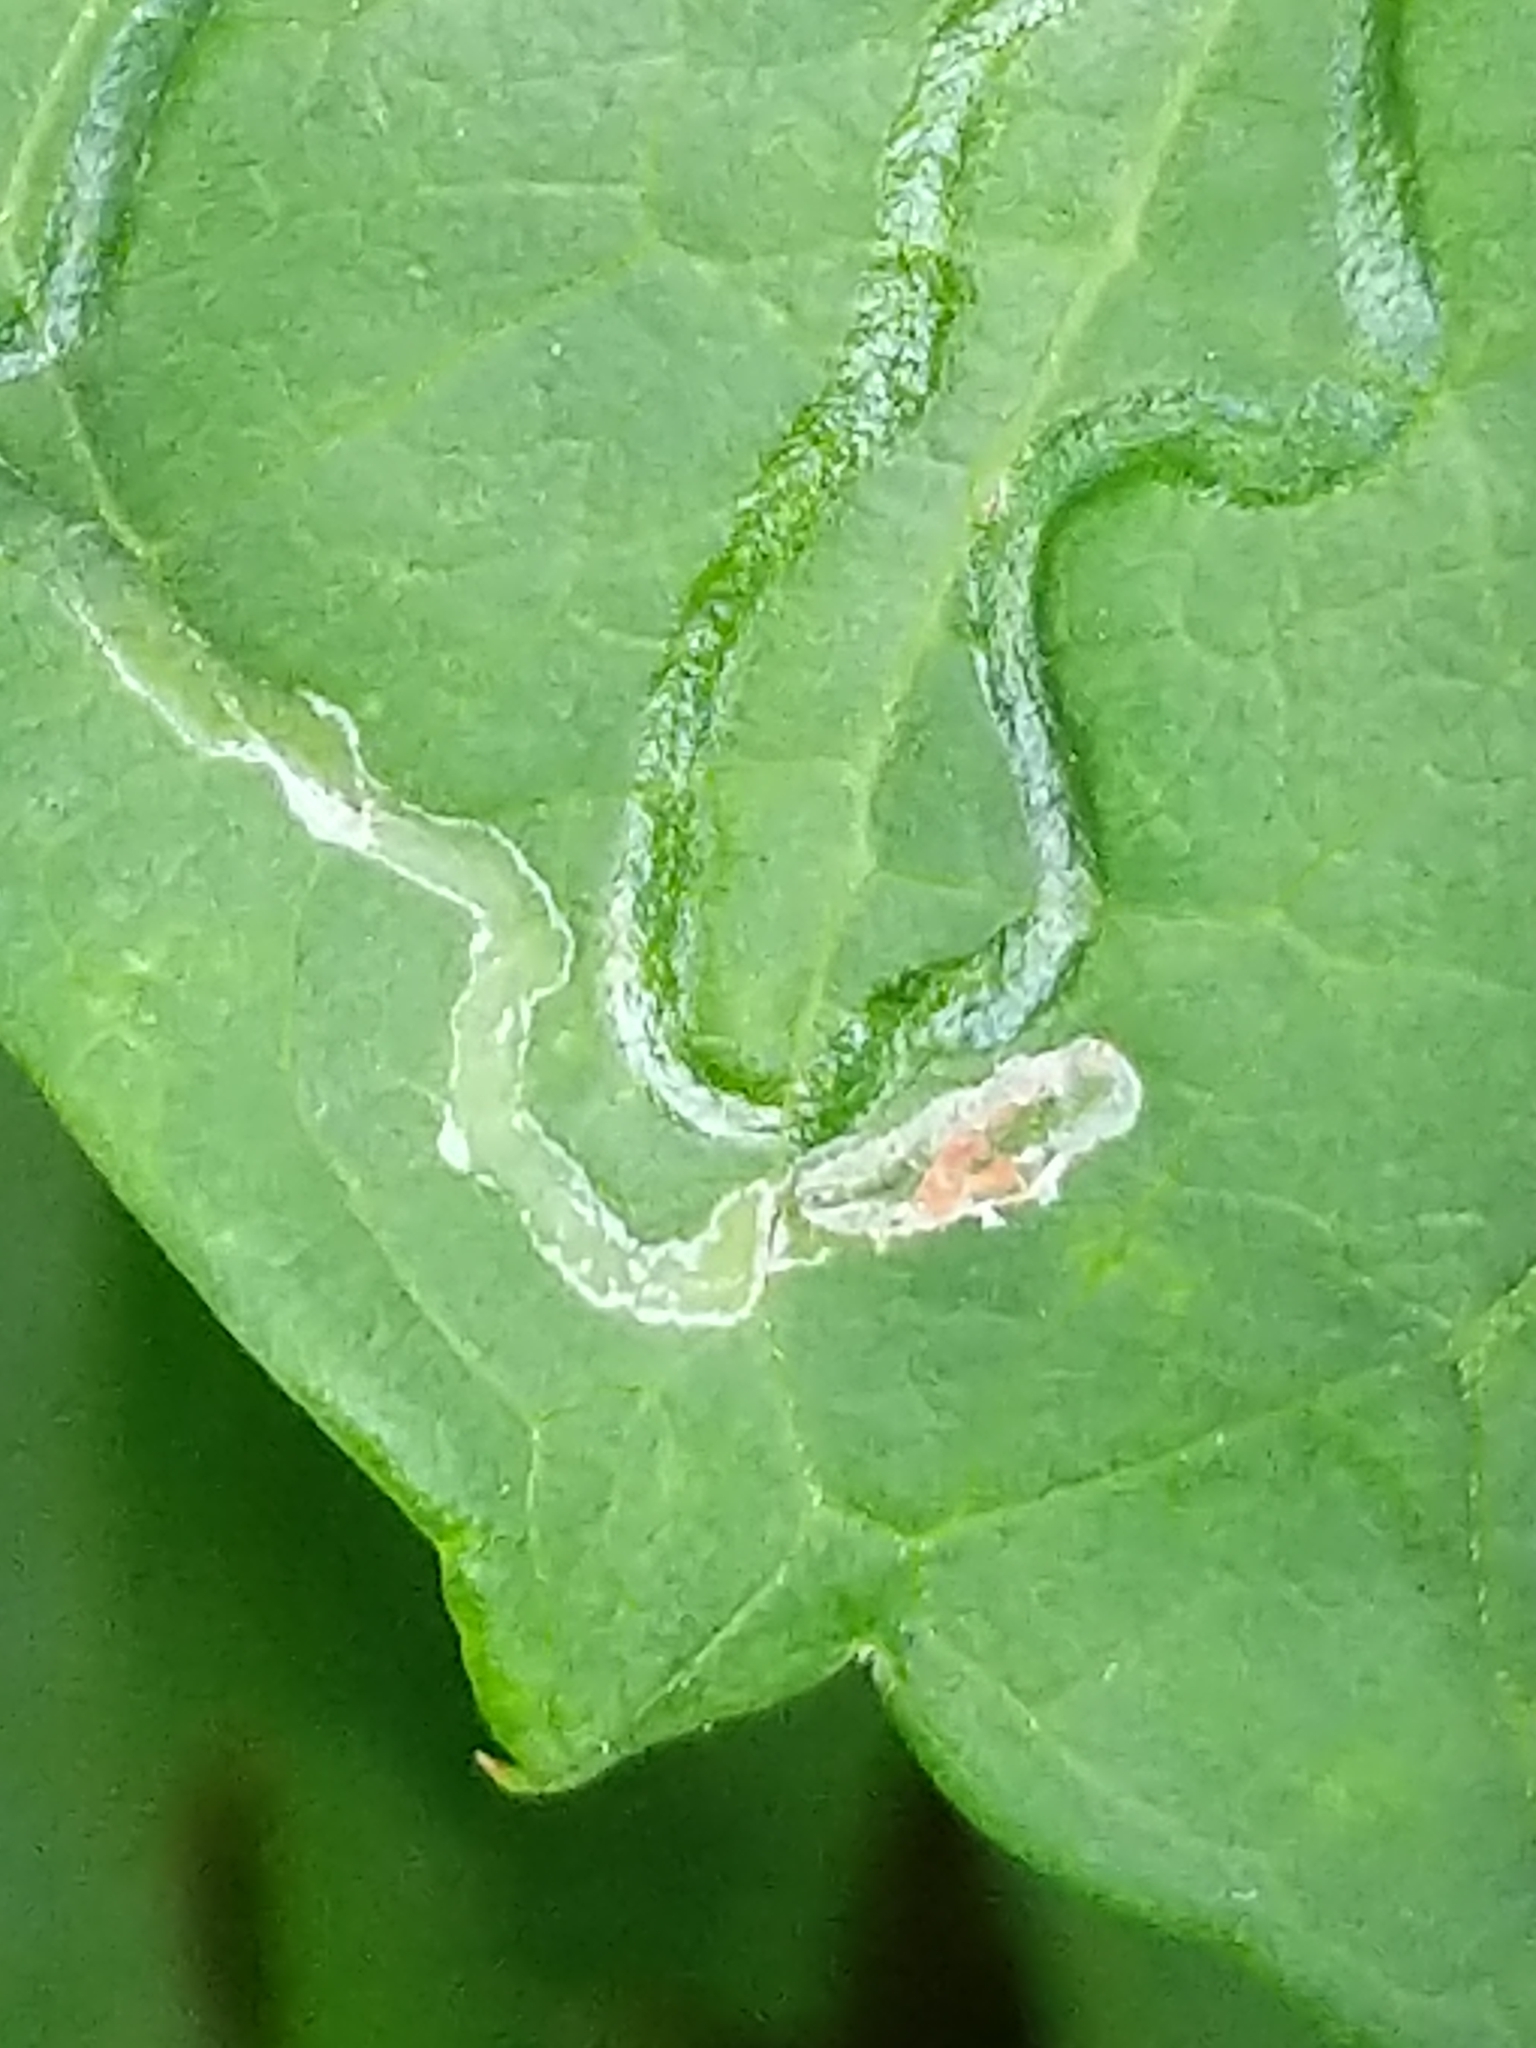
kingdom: Animalia
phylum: Arthropoda
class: Insecta
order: Lepidoptera
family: Gracillariidae
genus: Phyllocnistis
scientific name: Phyllocnistis vitegenella
